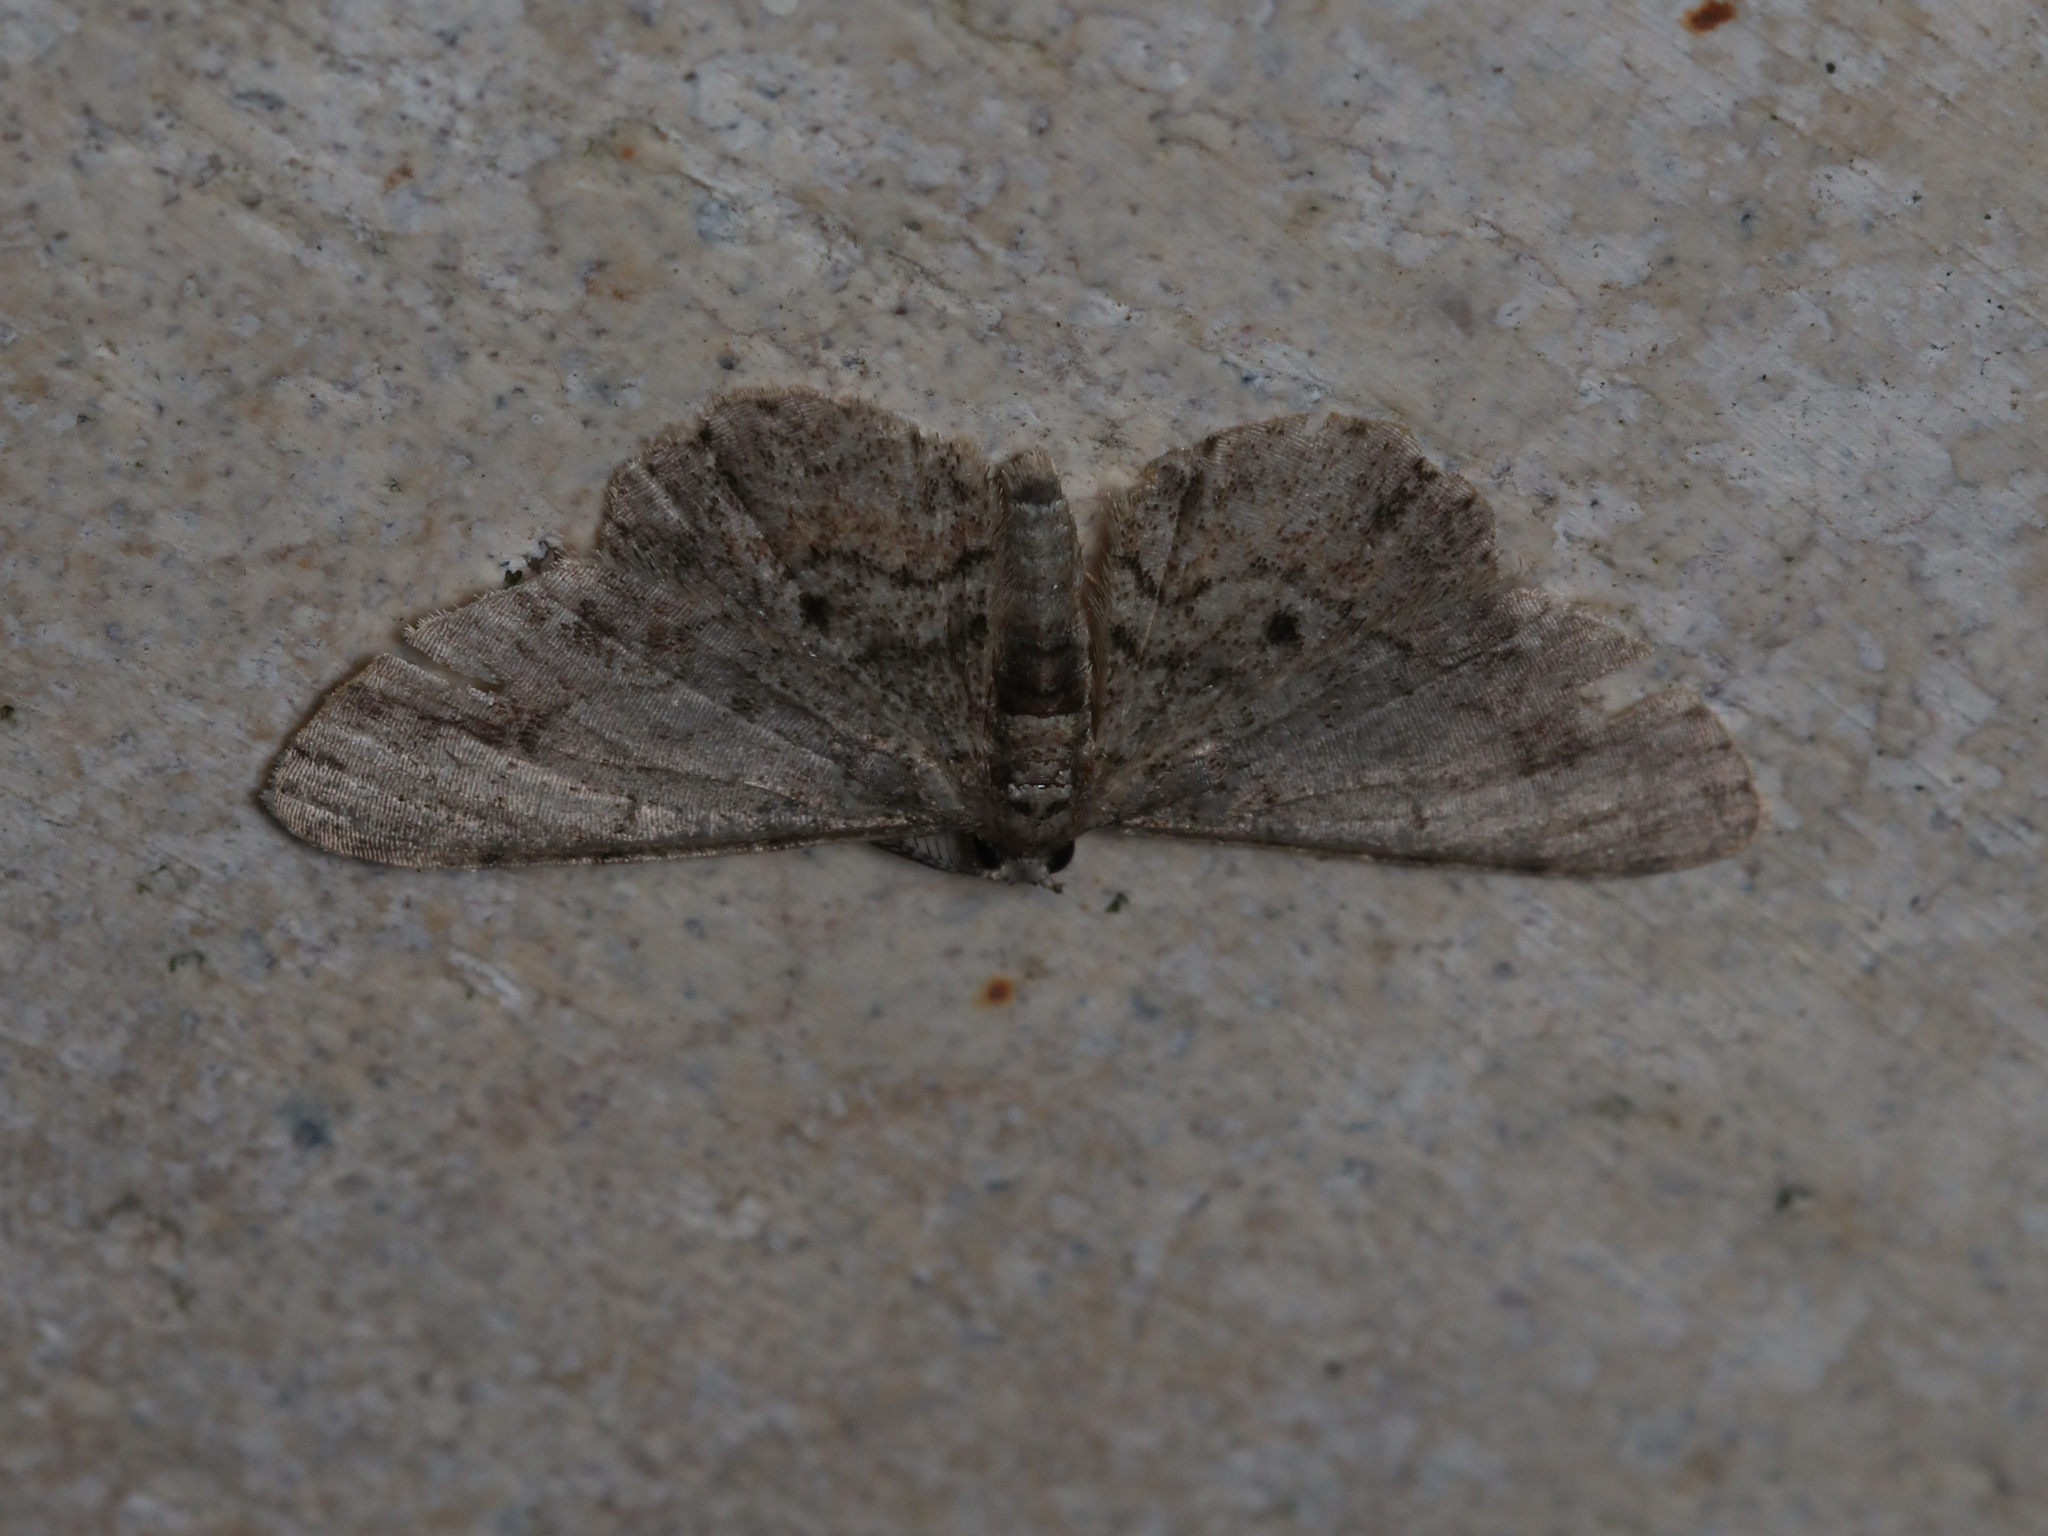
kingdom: Animalia
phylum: Arthropoda
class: Insecta
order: Lepidoptera
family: Geometridae
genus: Glenoides
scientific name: Glenoides texanaria
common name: Texas gray
